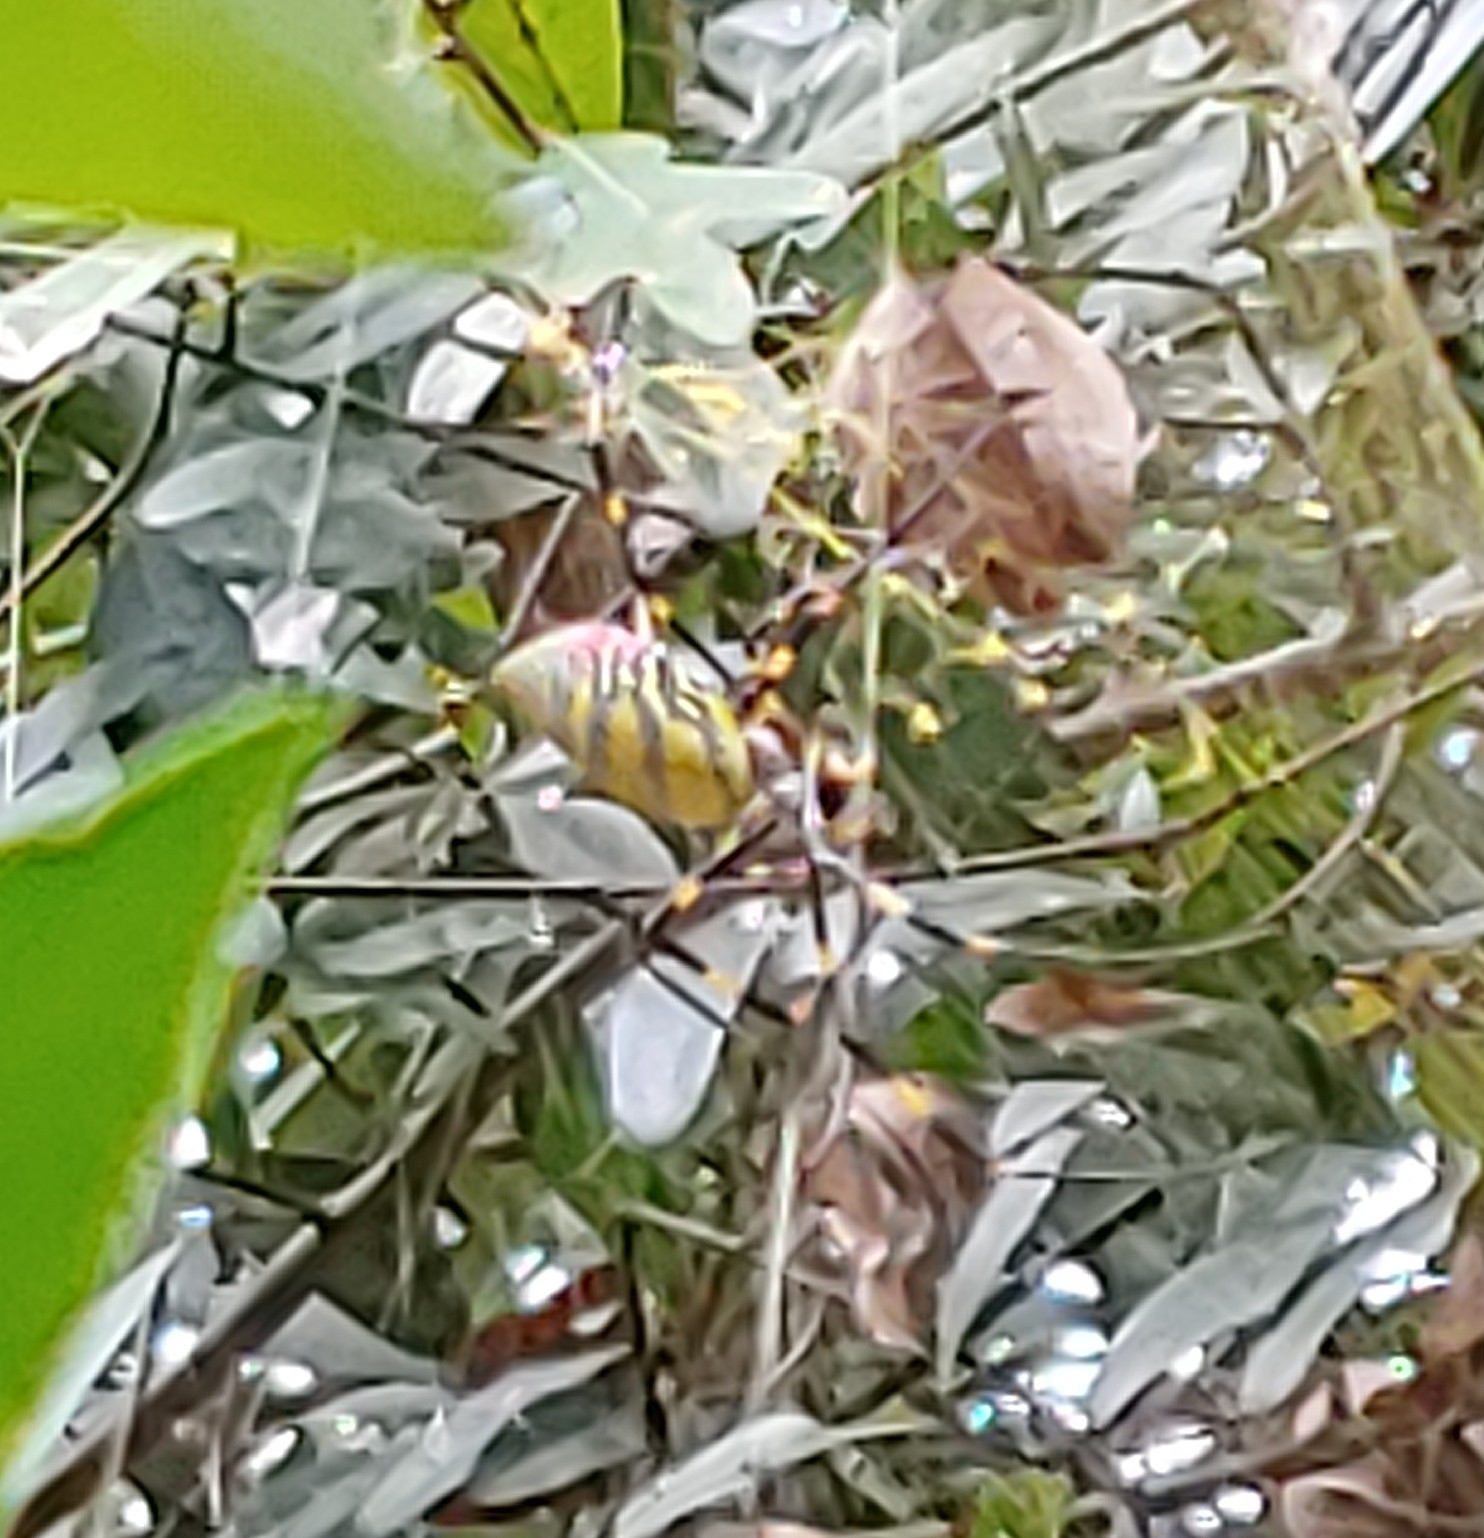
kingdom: Animalia
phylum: Arthropoda
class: Arachnida
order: Araneae
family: Araneidae
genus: Trichonephila
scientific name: Trichonephila clavata
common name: Jorō spider
